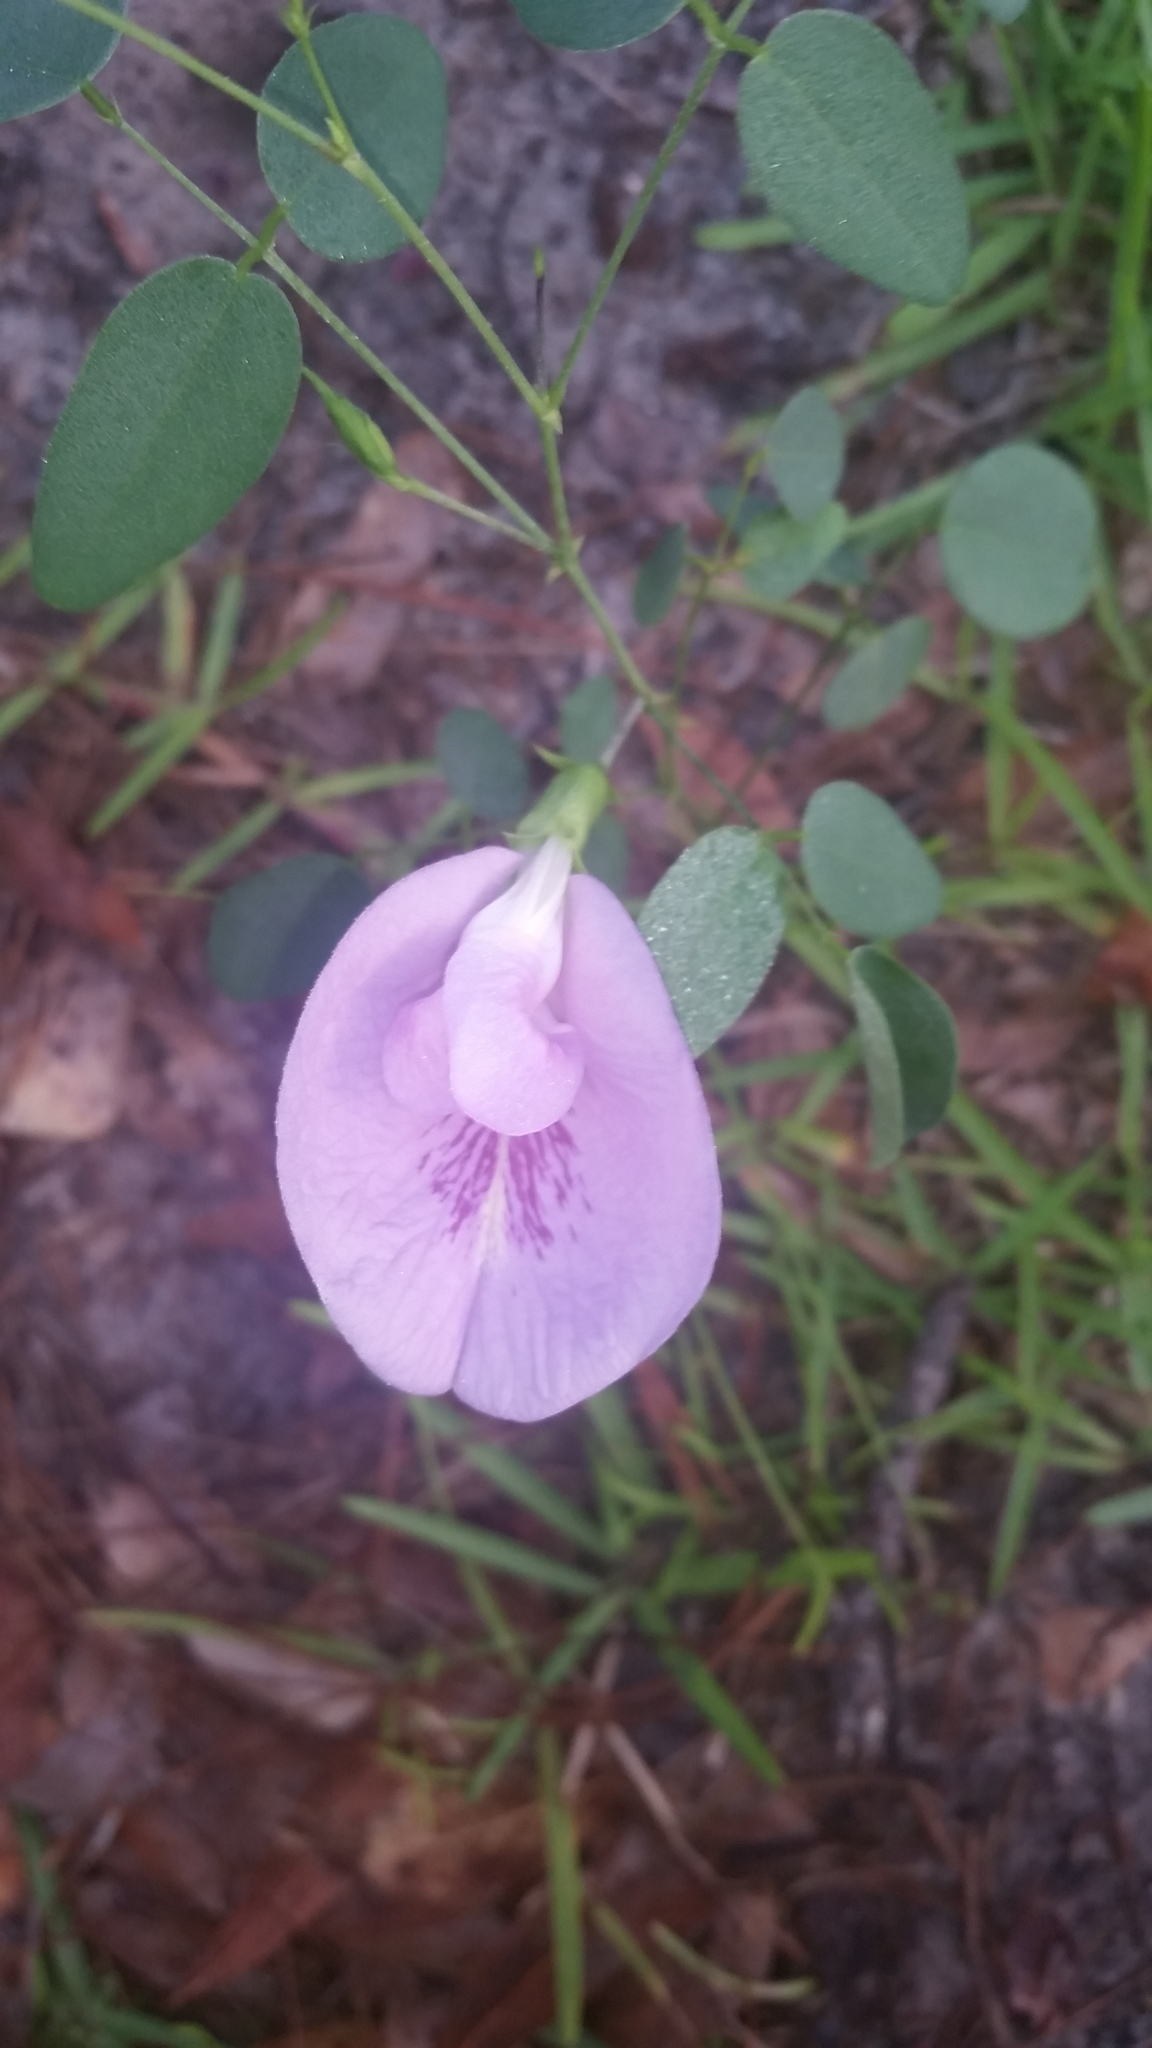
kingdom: Plantae
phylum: Tracheophyta
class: Magnoliopsida
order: Fabales
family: Fabaceae
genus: Clitoria
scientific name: Clitoria mariana
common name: Butterfly-pea
